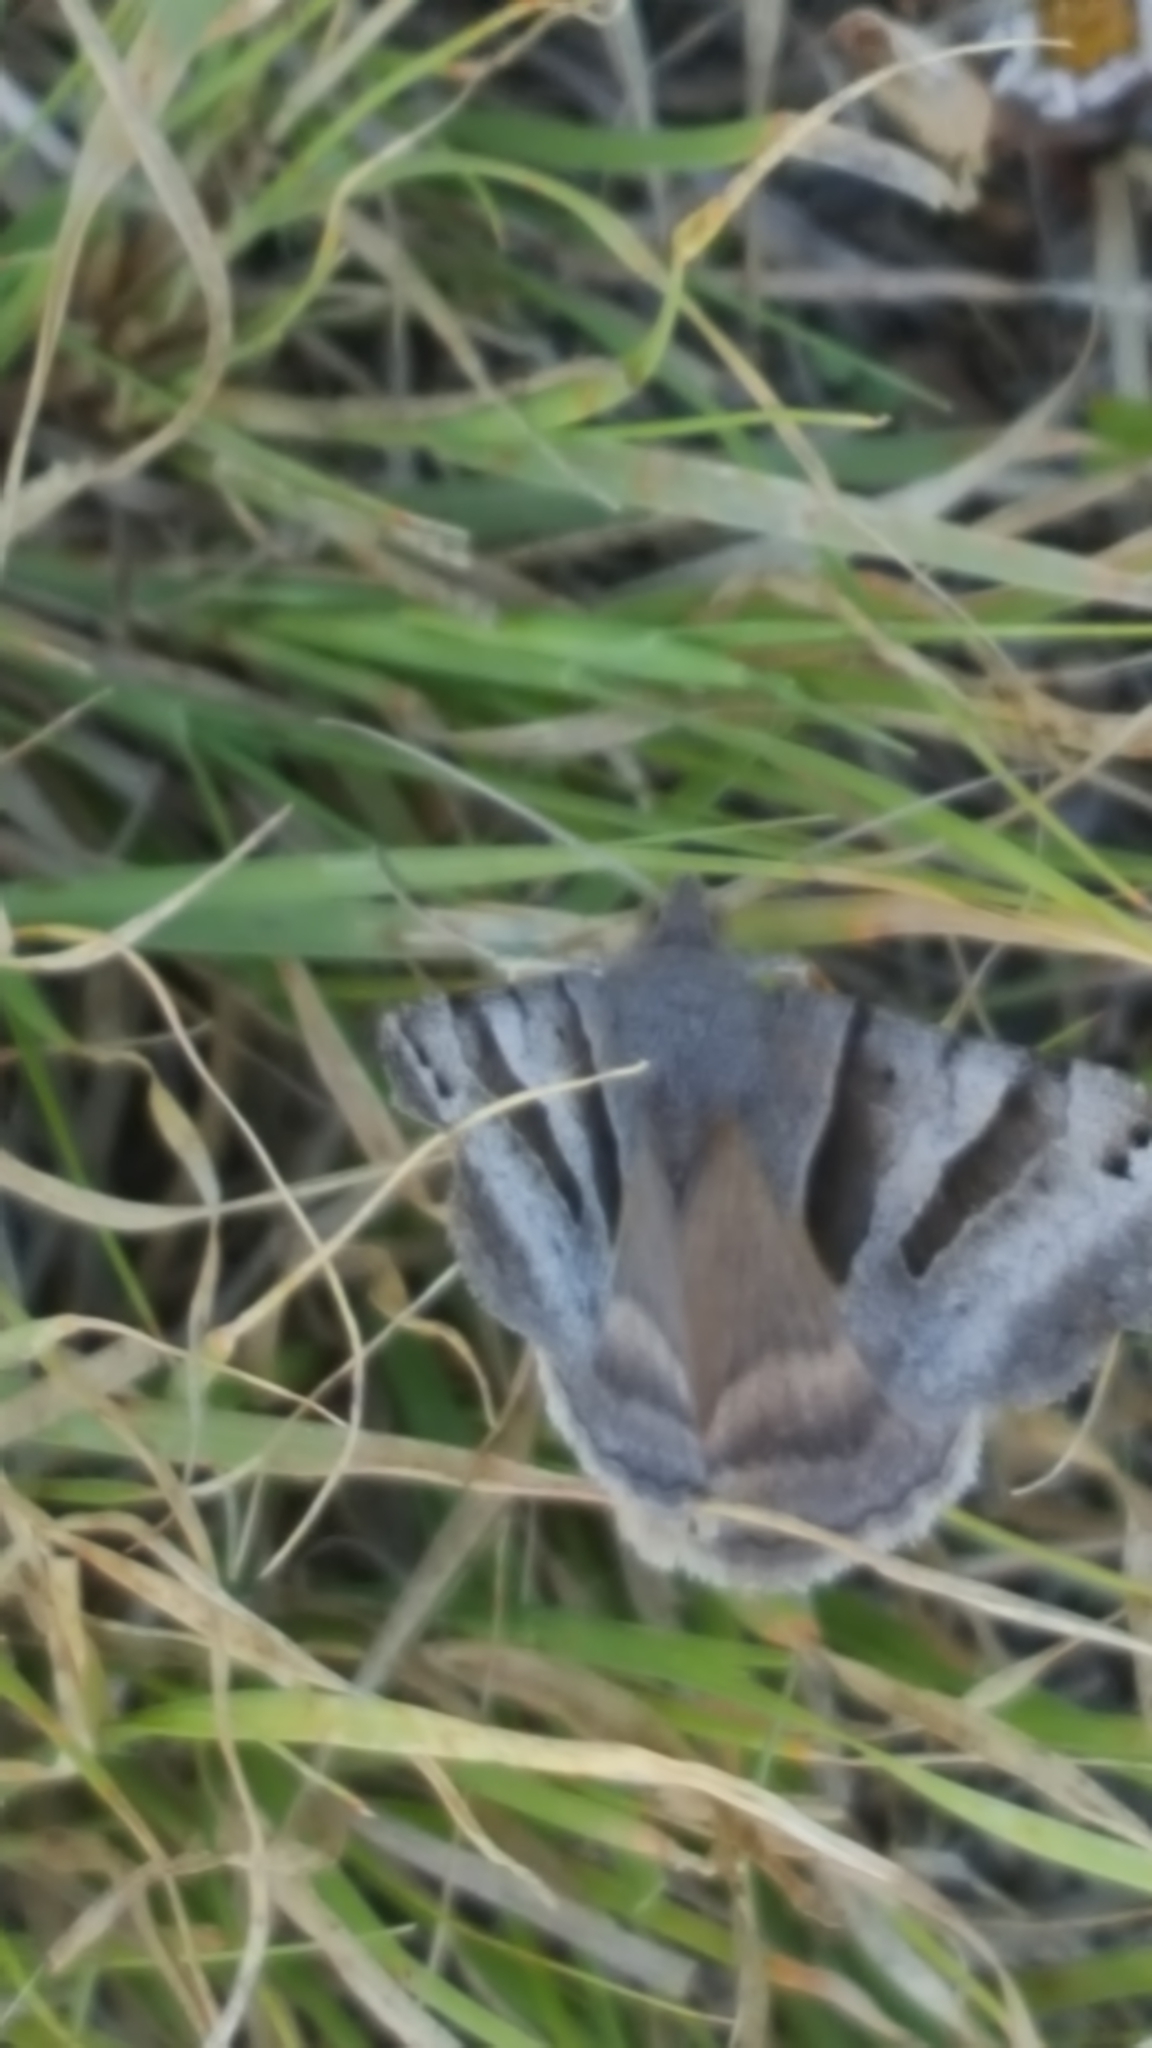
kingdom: Animalia
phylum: Arthropoda
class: Insecta
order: Lepidoptera
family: Erebidae
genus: Caenurgina
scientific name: Caenurgina erechtea
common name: Forage looper moth
